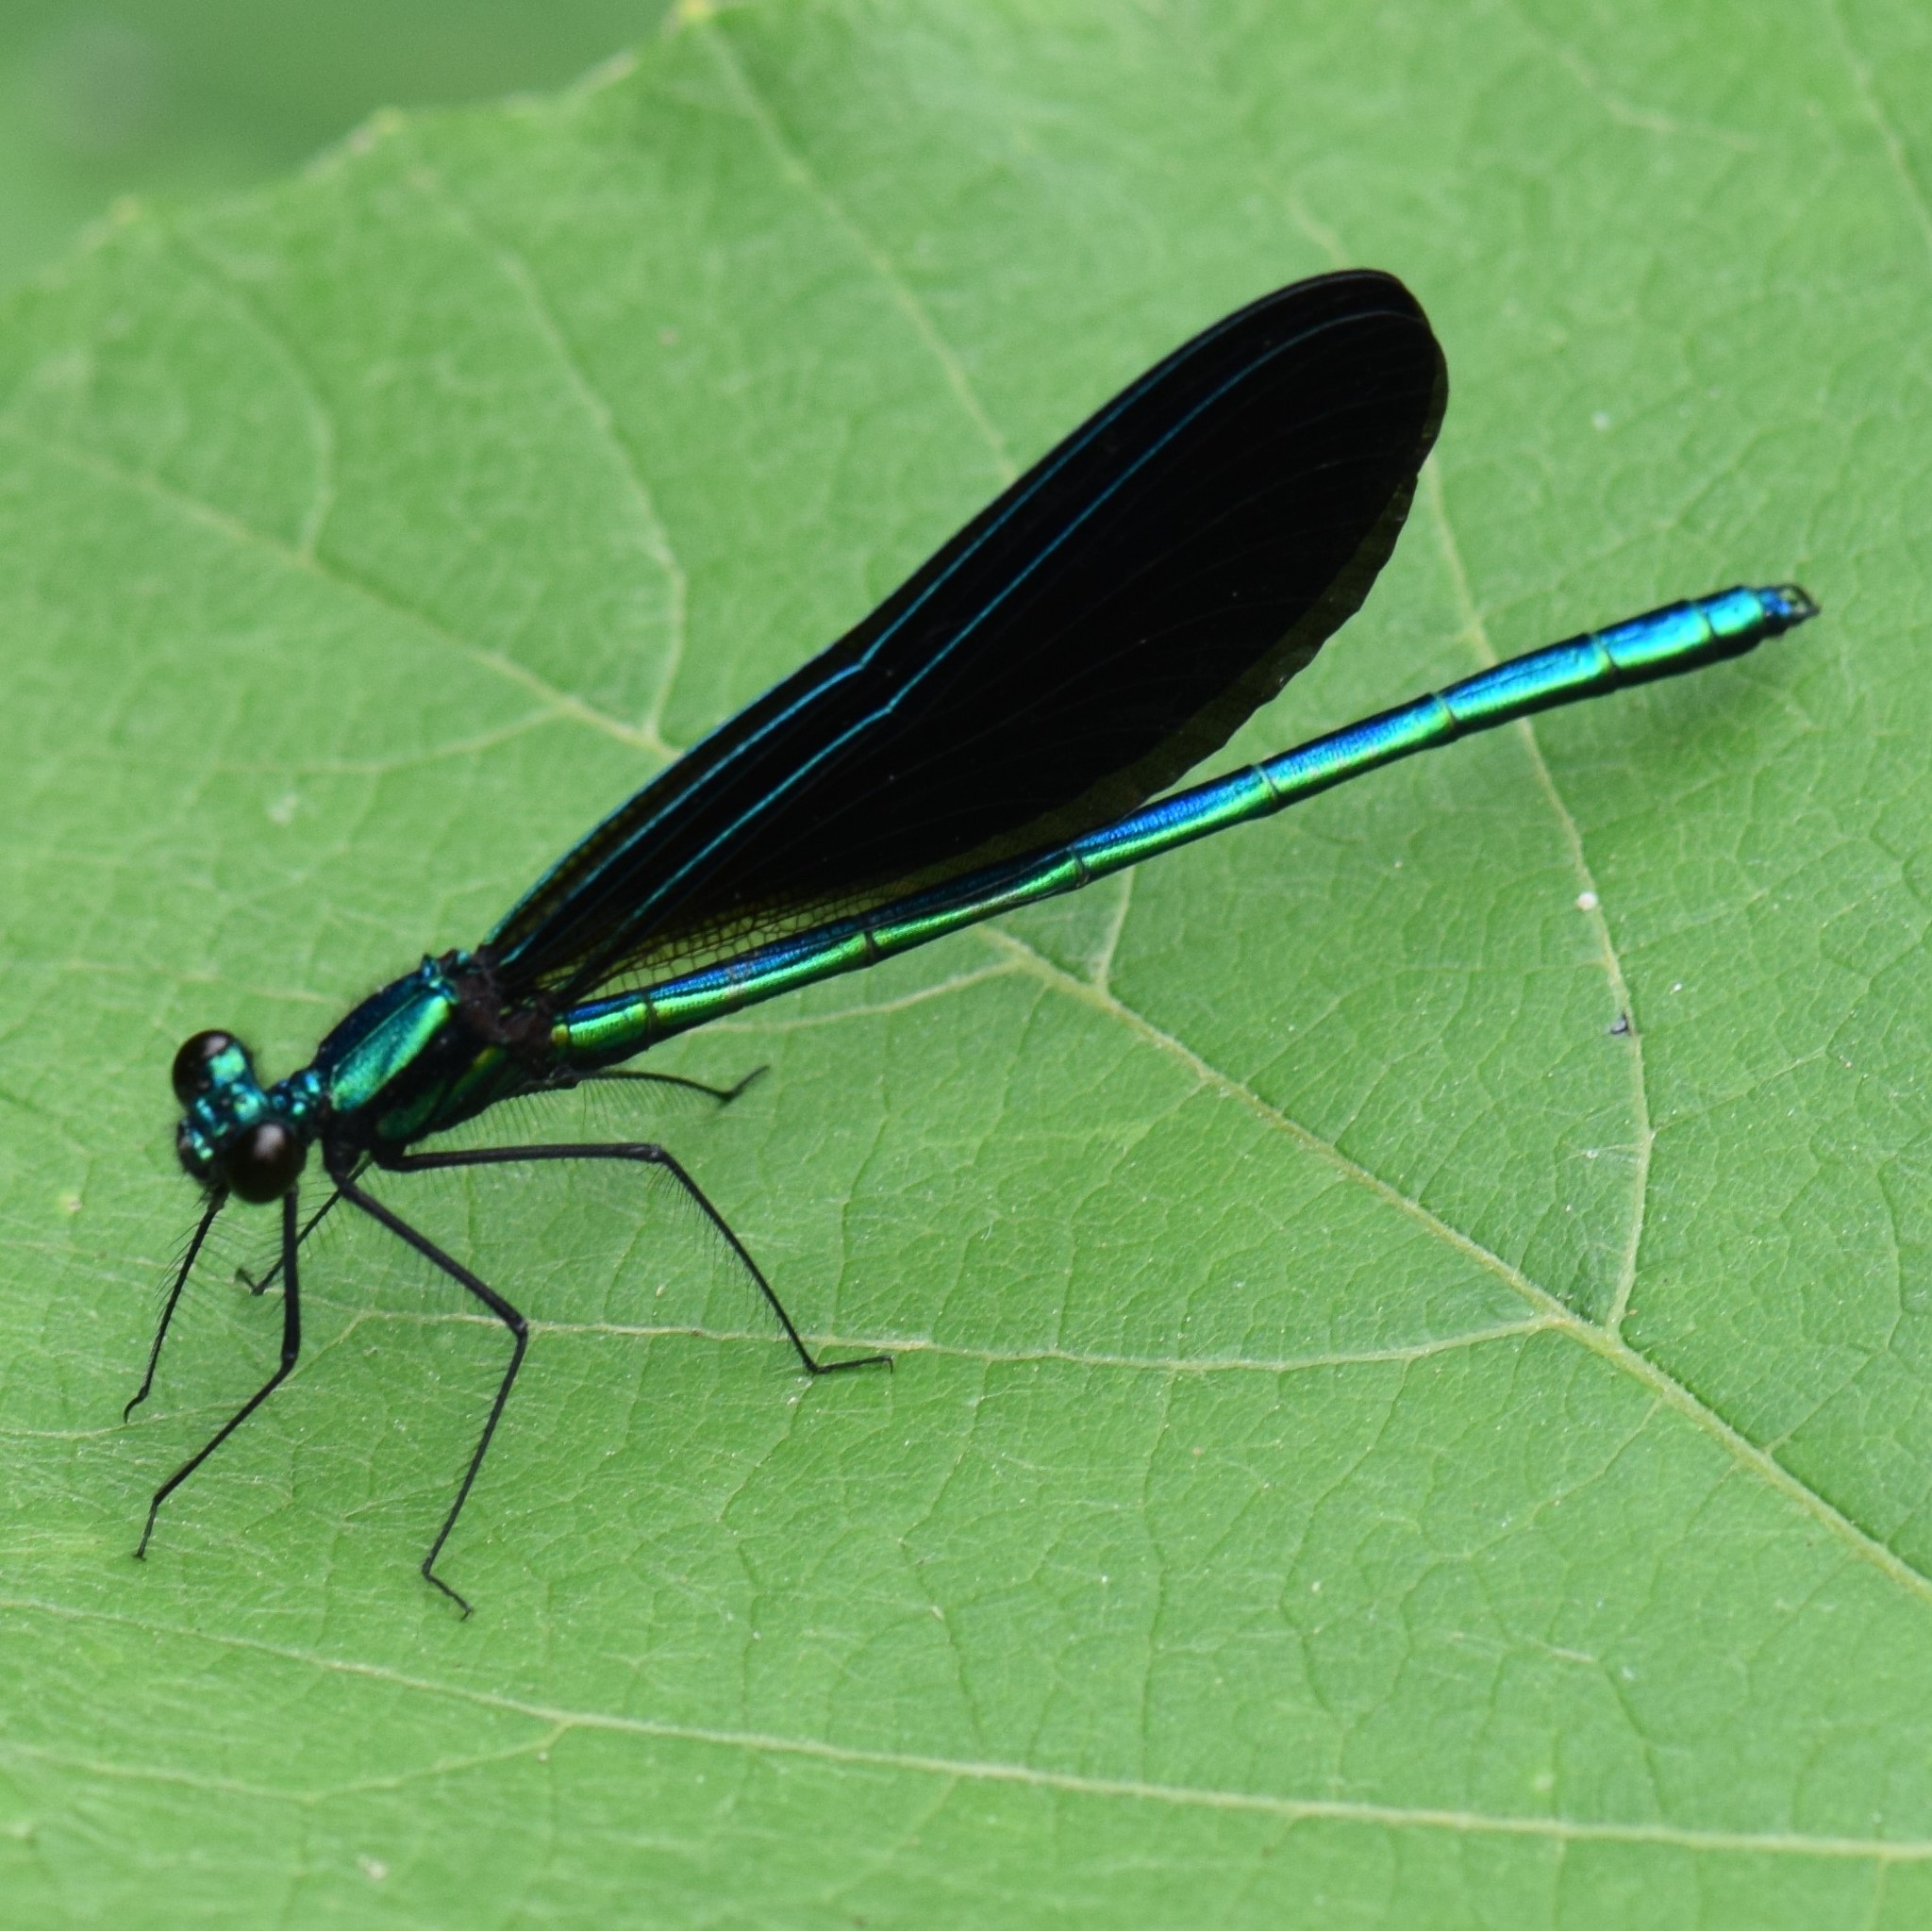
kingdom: Animalia
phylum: Arthropoda
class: Insecta
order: Odonata
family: Calopterygidae
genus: Calopteryx
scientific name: Calopteryx maculata
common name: Ebony jewelwing
